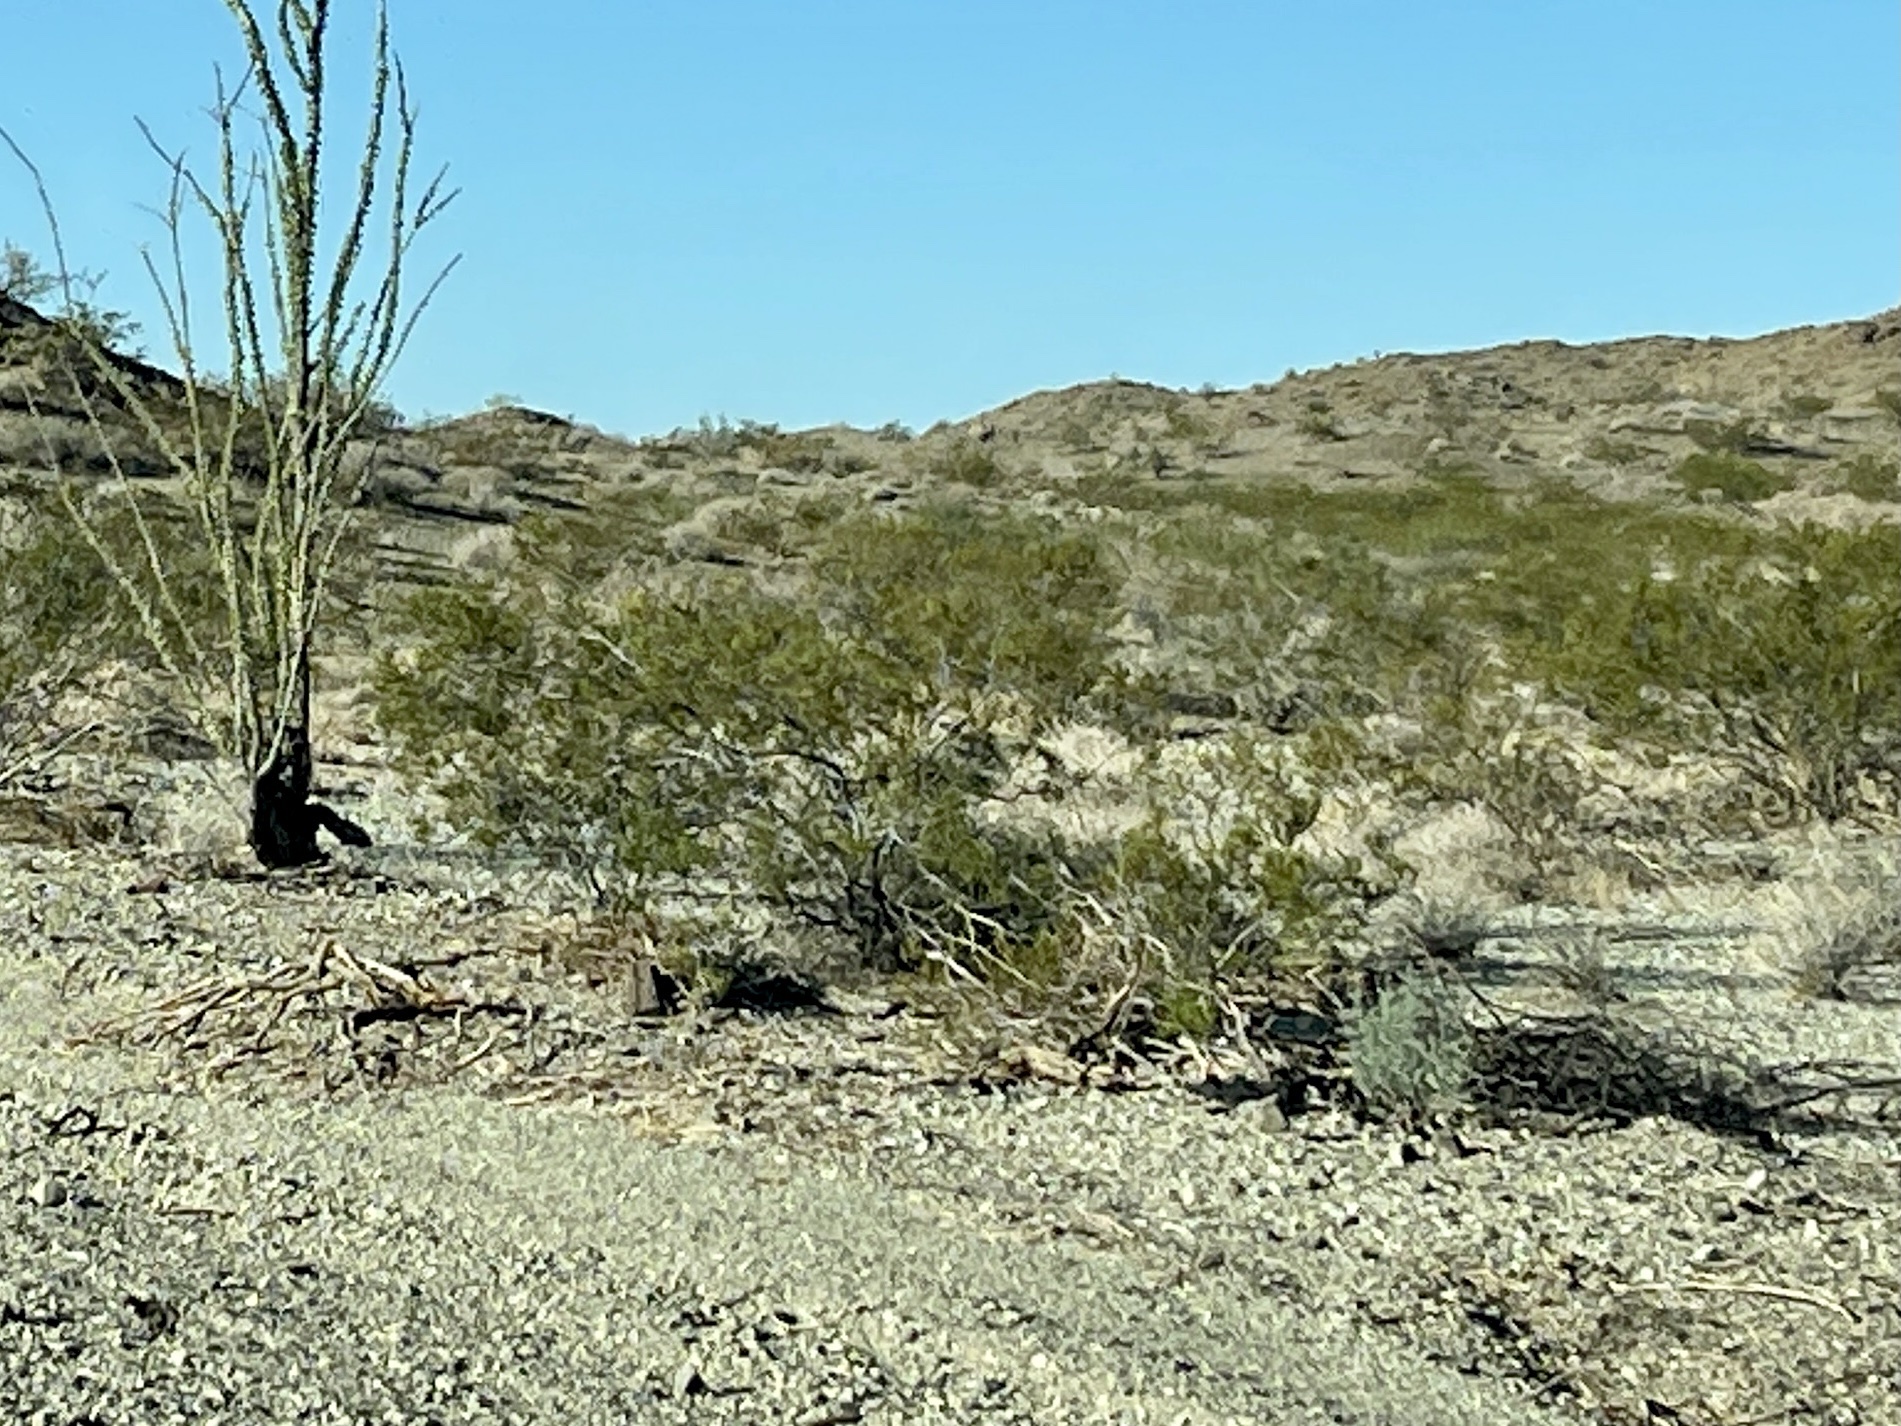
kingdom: Plantae
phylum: Tracheophyta
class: Magnoliopsida
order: Zygophyllales
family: Zygophyllaceae
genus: Larrea
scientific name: Larrea tridentata
